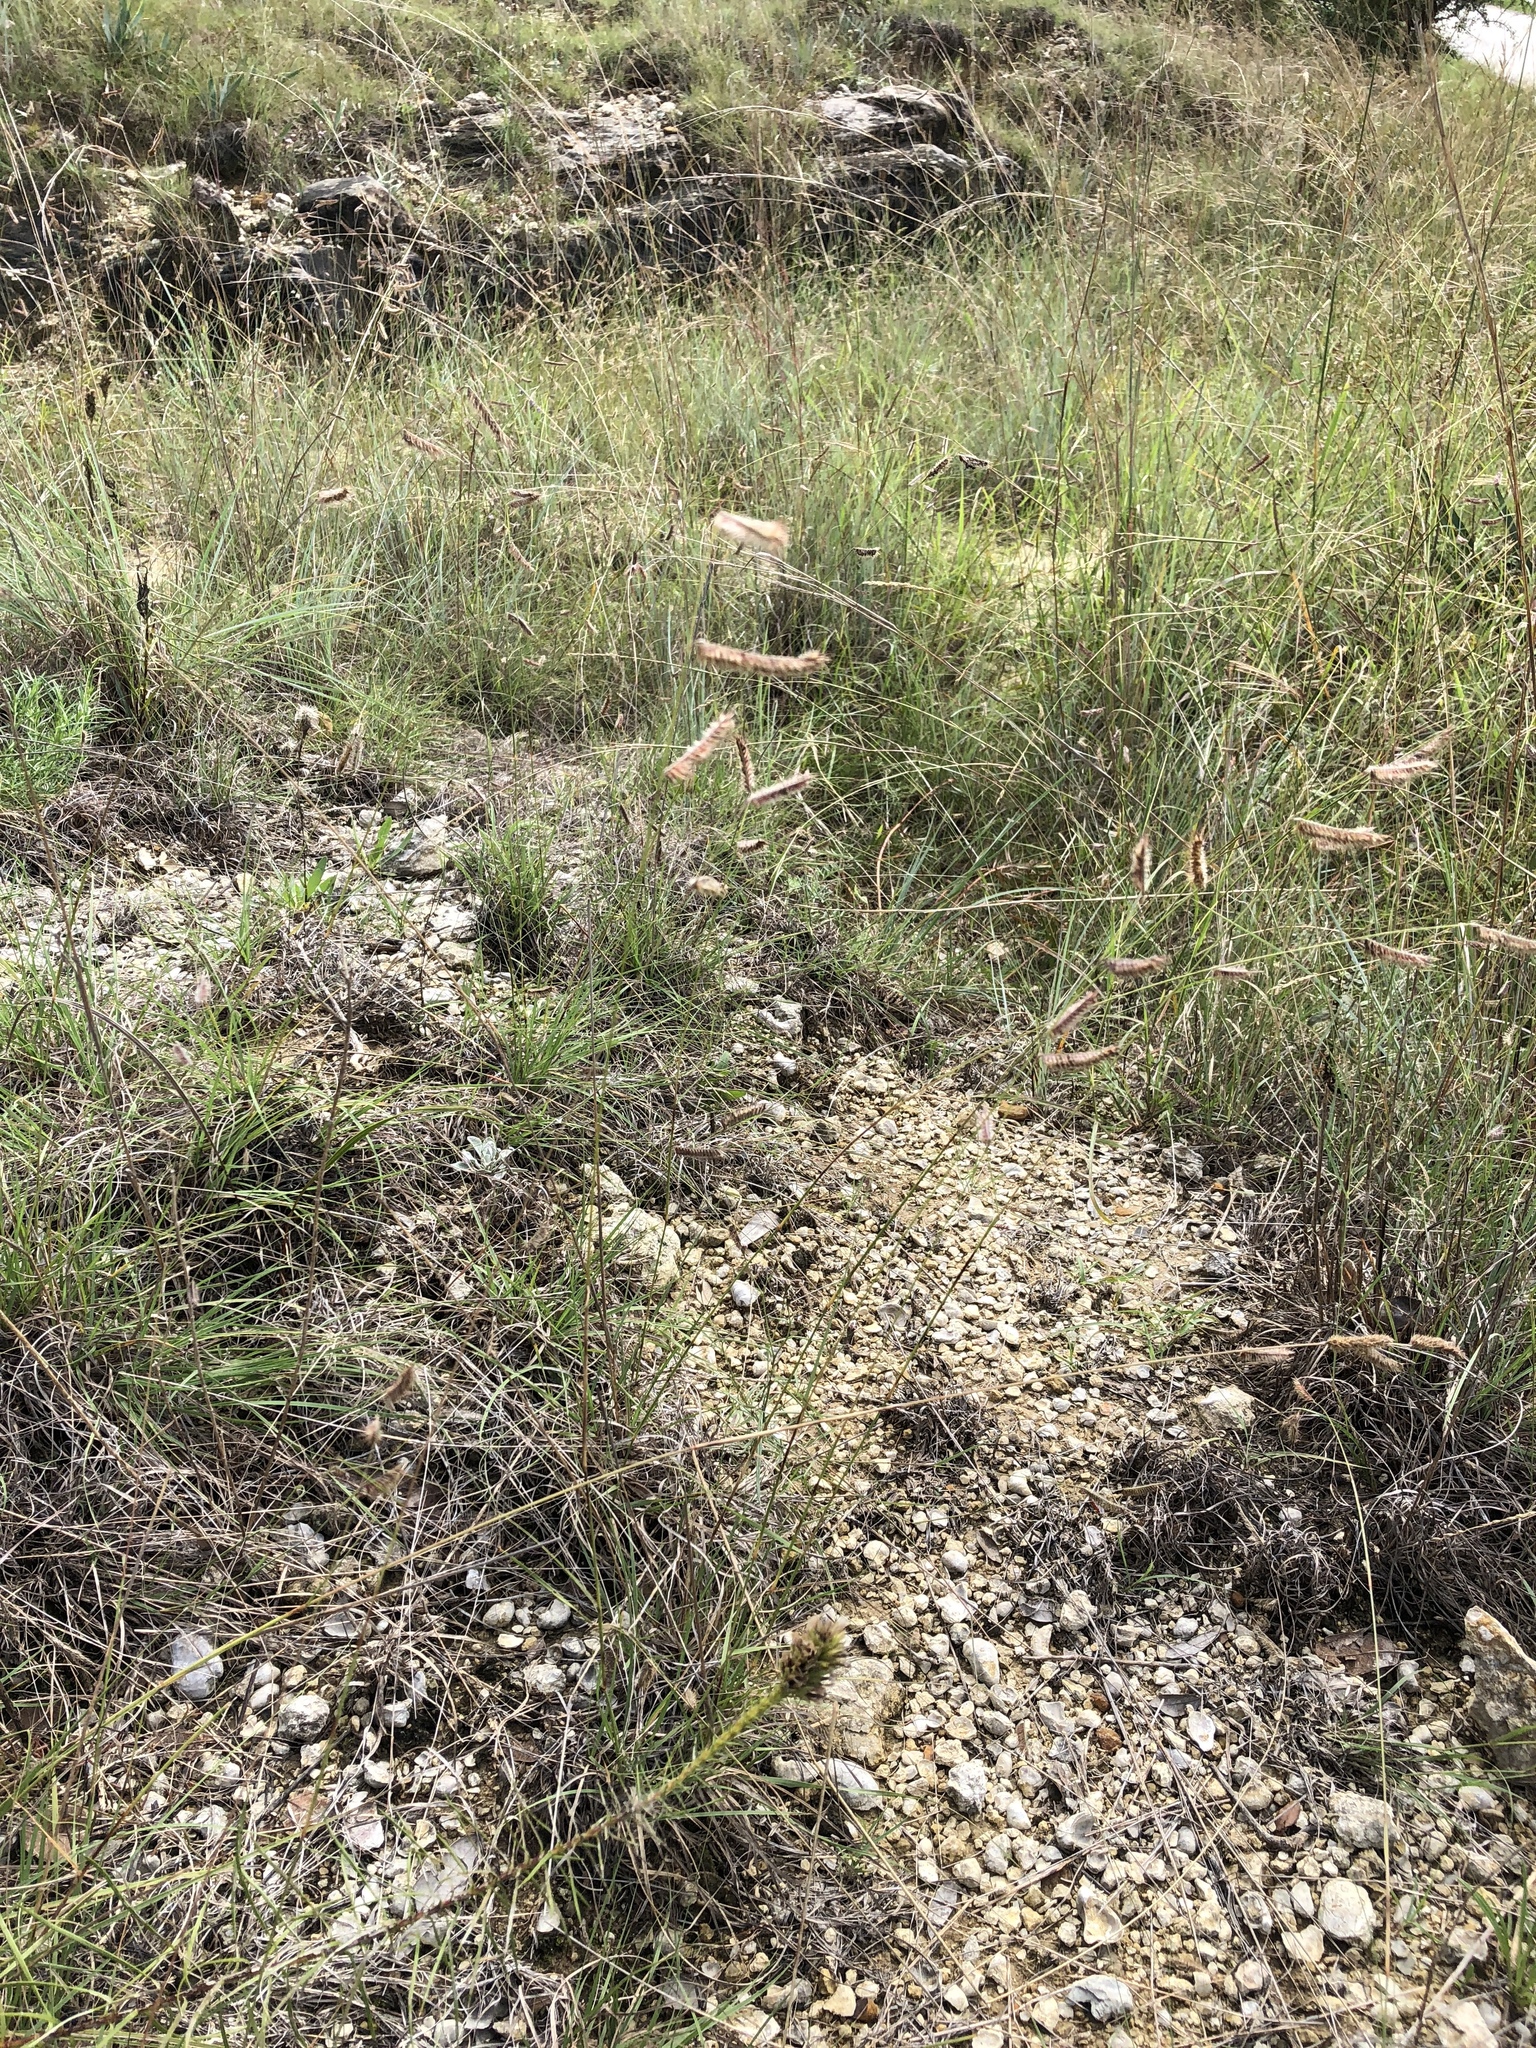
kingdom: Plantae
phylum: Tracheophyta
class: Liliopsida
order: Poales
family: Poaceae
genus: Bouteloua
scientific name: Bouteloua hirsuta
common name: Hairy grama
